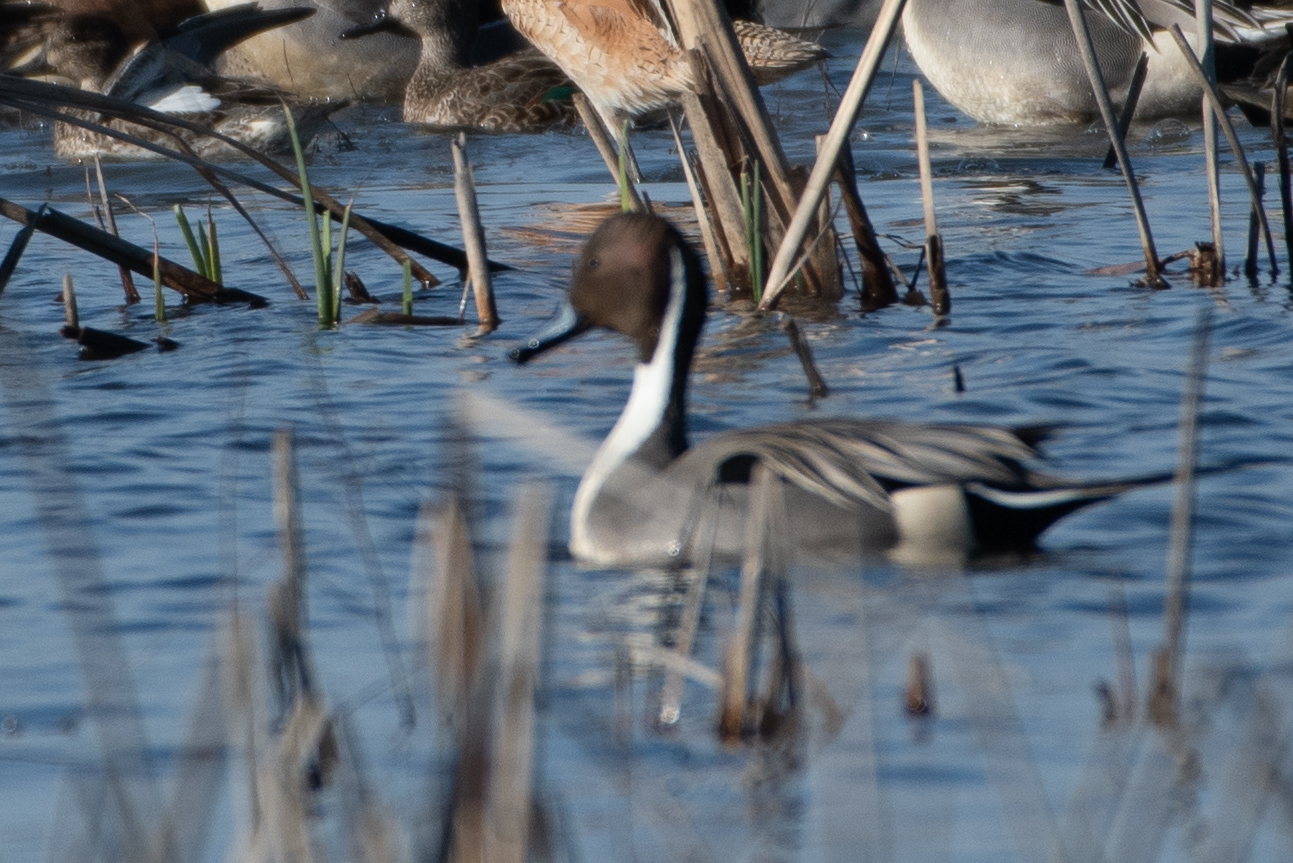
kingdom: Animalia
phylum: Chordata
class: Aves
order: Anseriformes
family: Anatidae
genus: Anas
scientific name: Anas acuta
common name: Northern pintail
